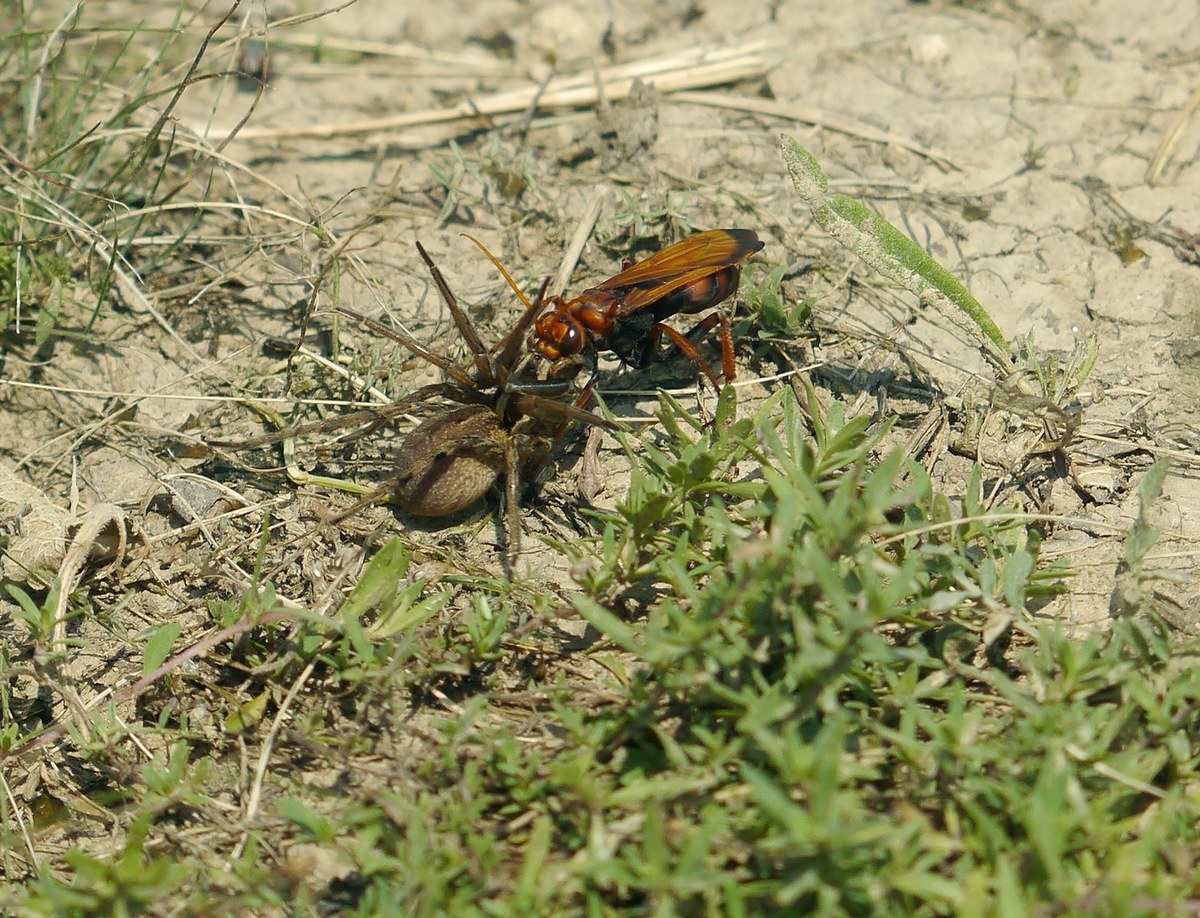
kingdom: Animalia
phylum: Arthropoda
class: Insecta
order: Hymenoptera
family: Pompilidae
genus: Cryptocheilus
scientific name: Cryptocheilus rubellus
